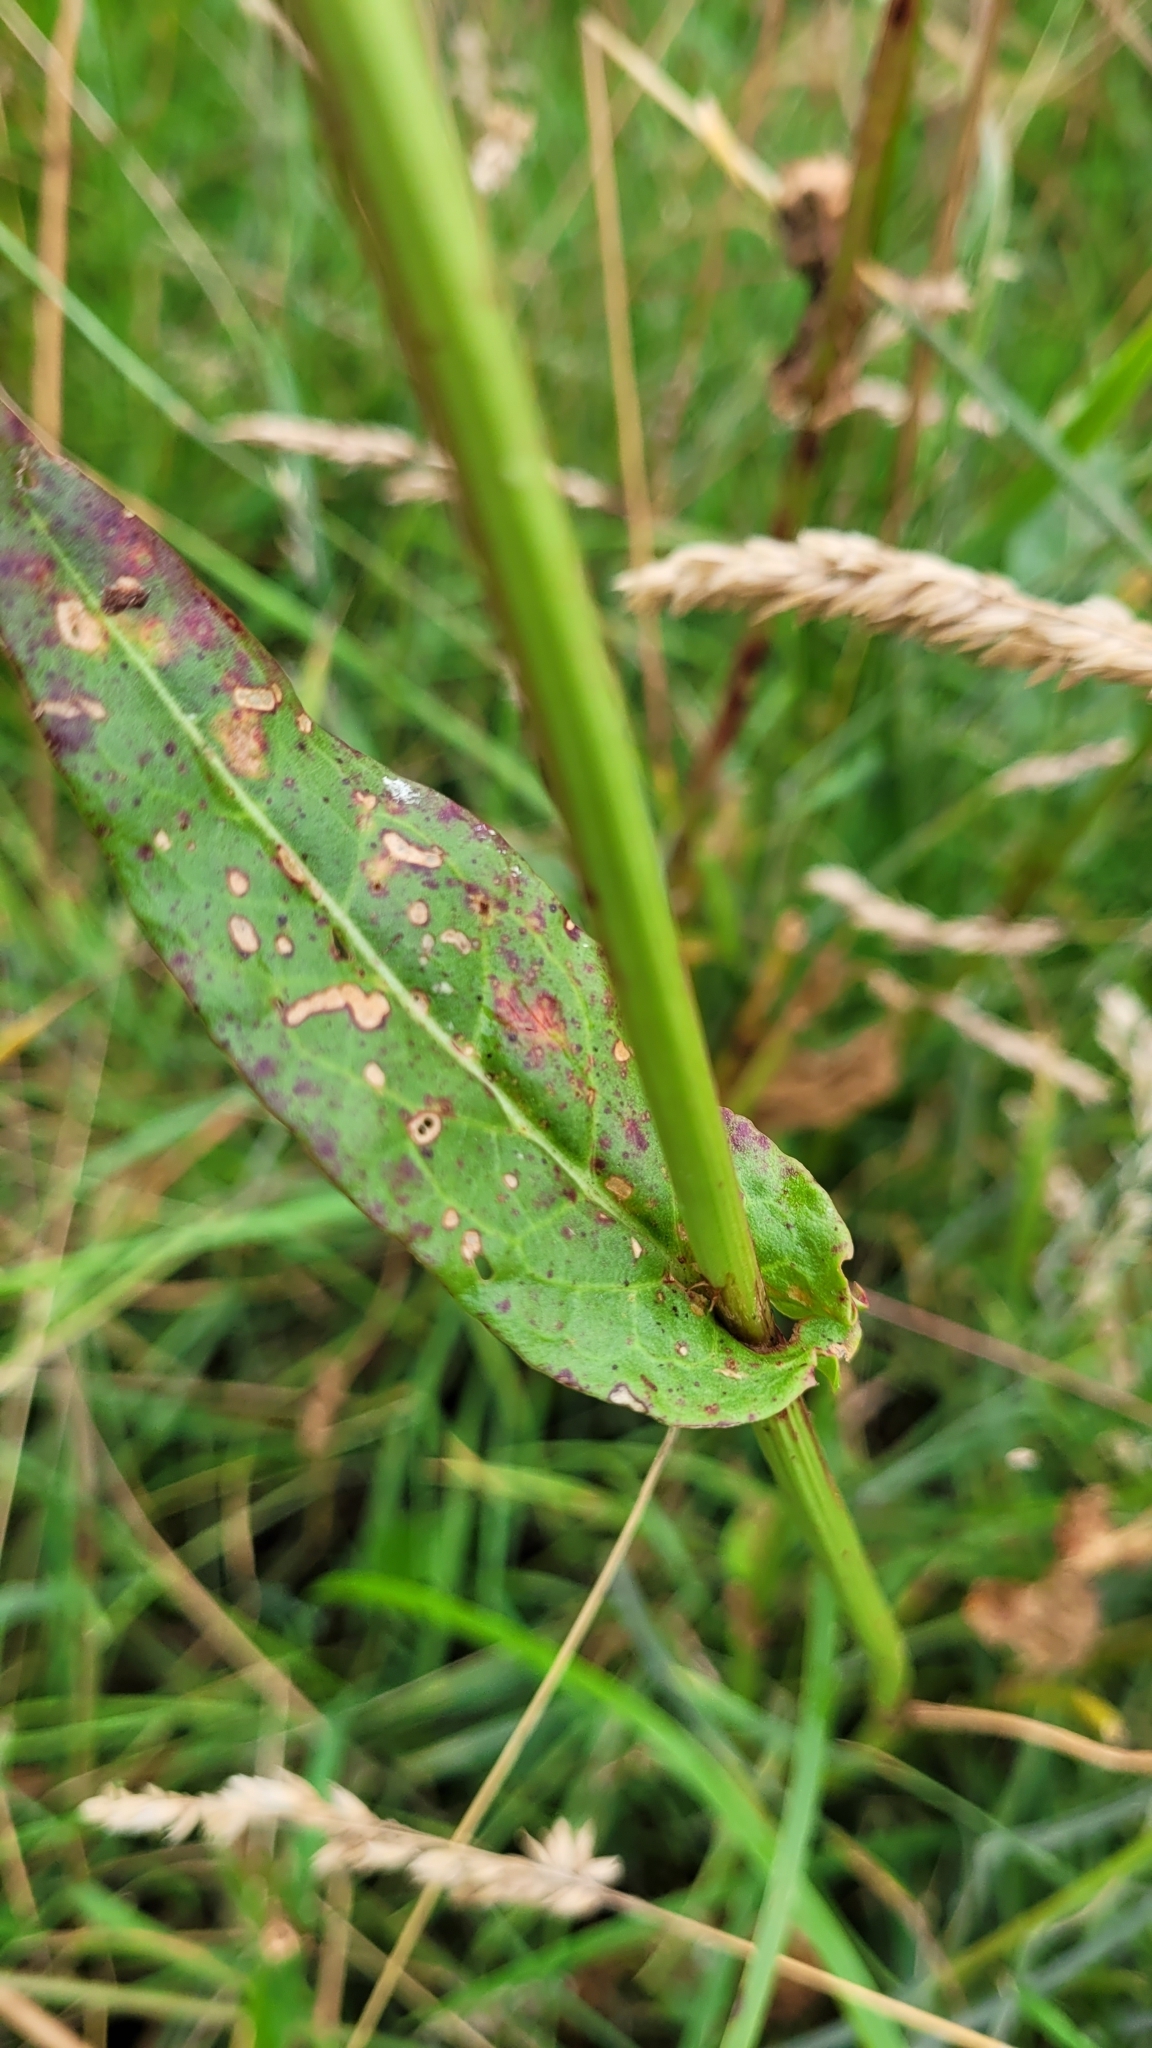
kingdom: Plantae
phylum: Tracheophyta
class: Magnoliopsida
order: Caryophyllales
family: Polygonaceae
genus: Rumex
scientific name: Rumex acetosa
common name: Garden sorrel
